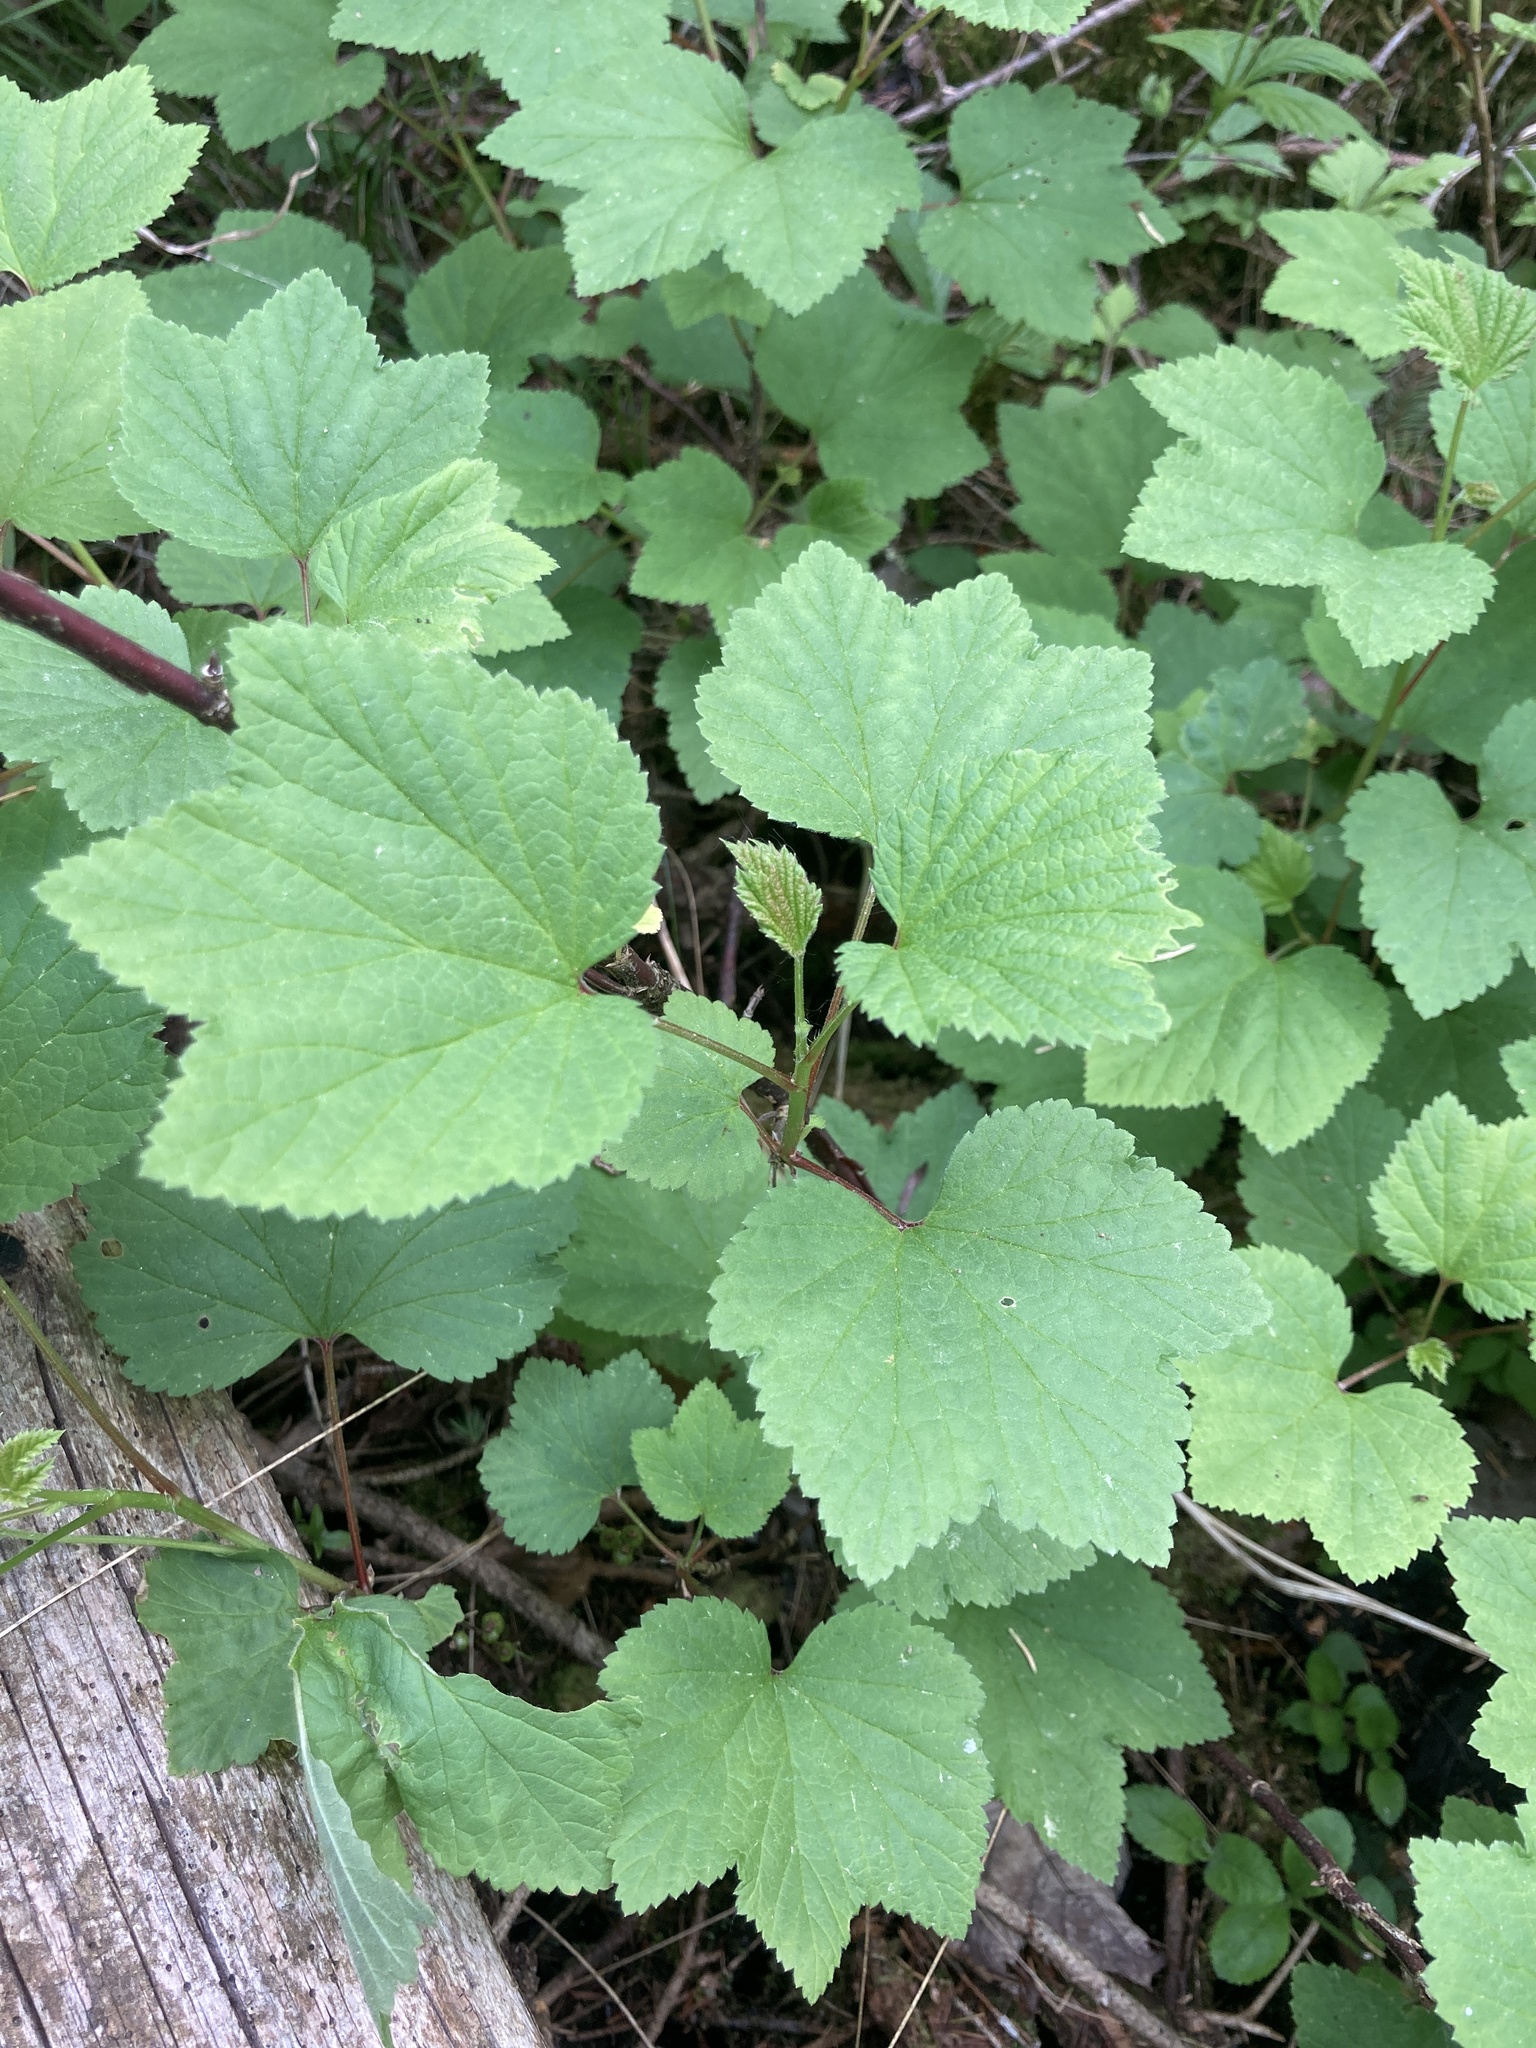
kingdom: Plantae
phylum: Tracheophyta
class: Magnoliopsida
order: Saxifragales
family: Grossulariaceae
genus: Ribes
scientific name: Ribes triste
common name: Swamp red currant
